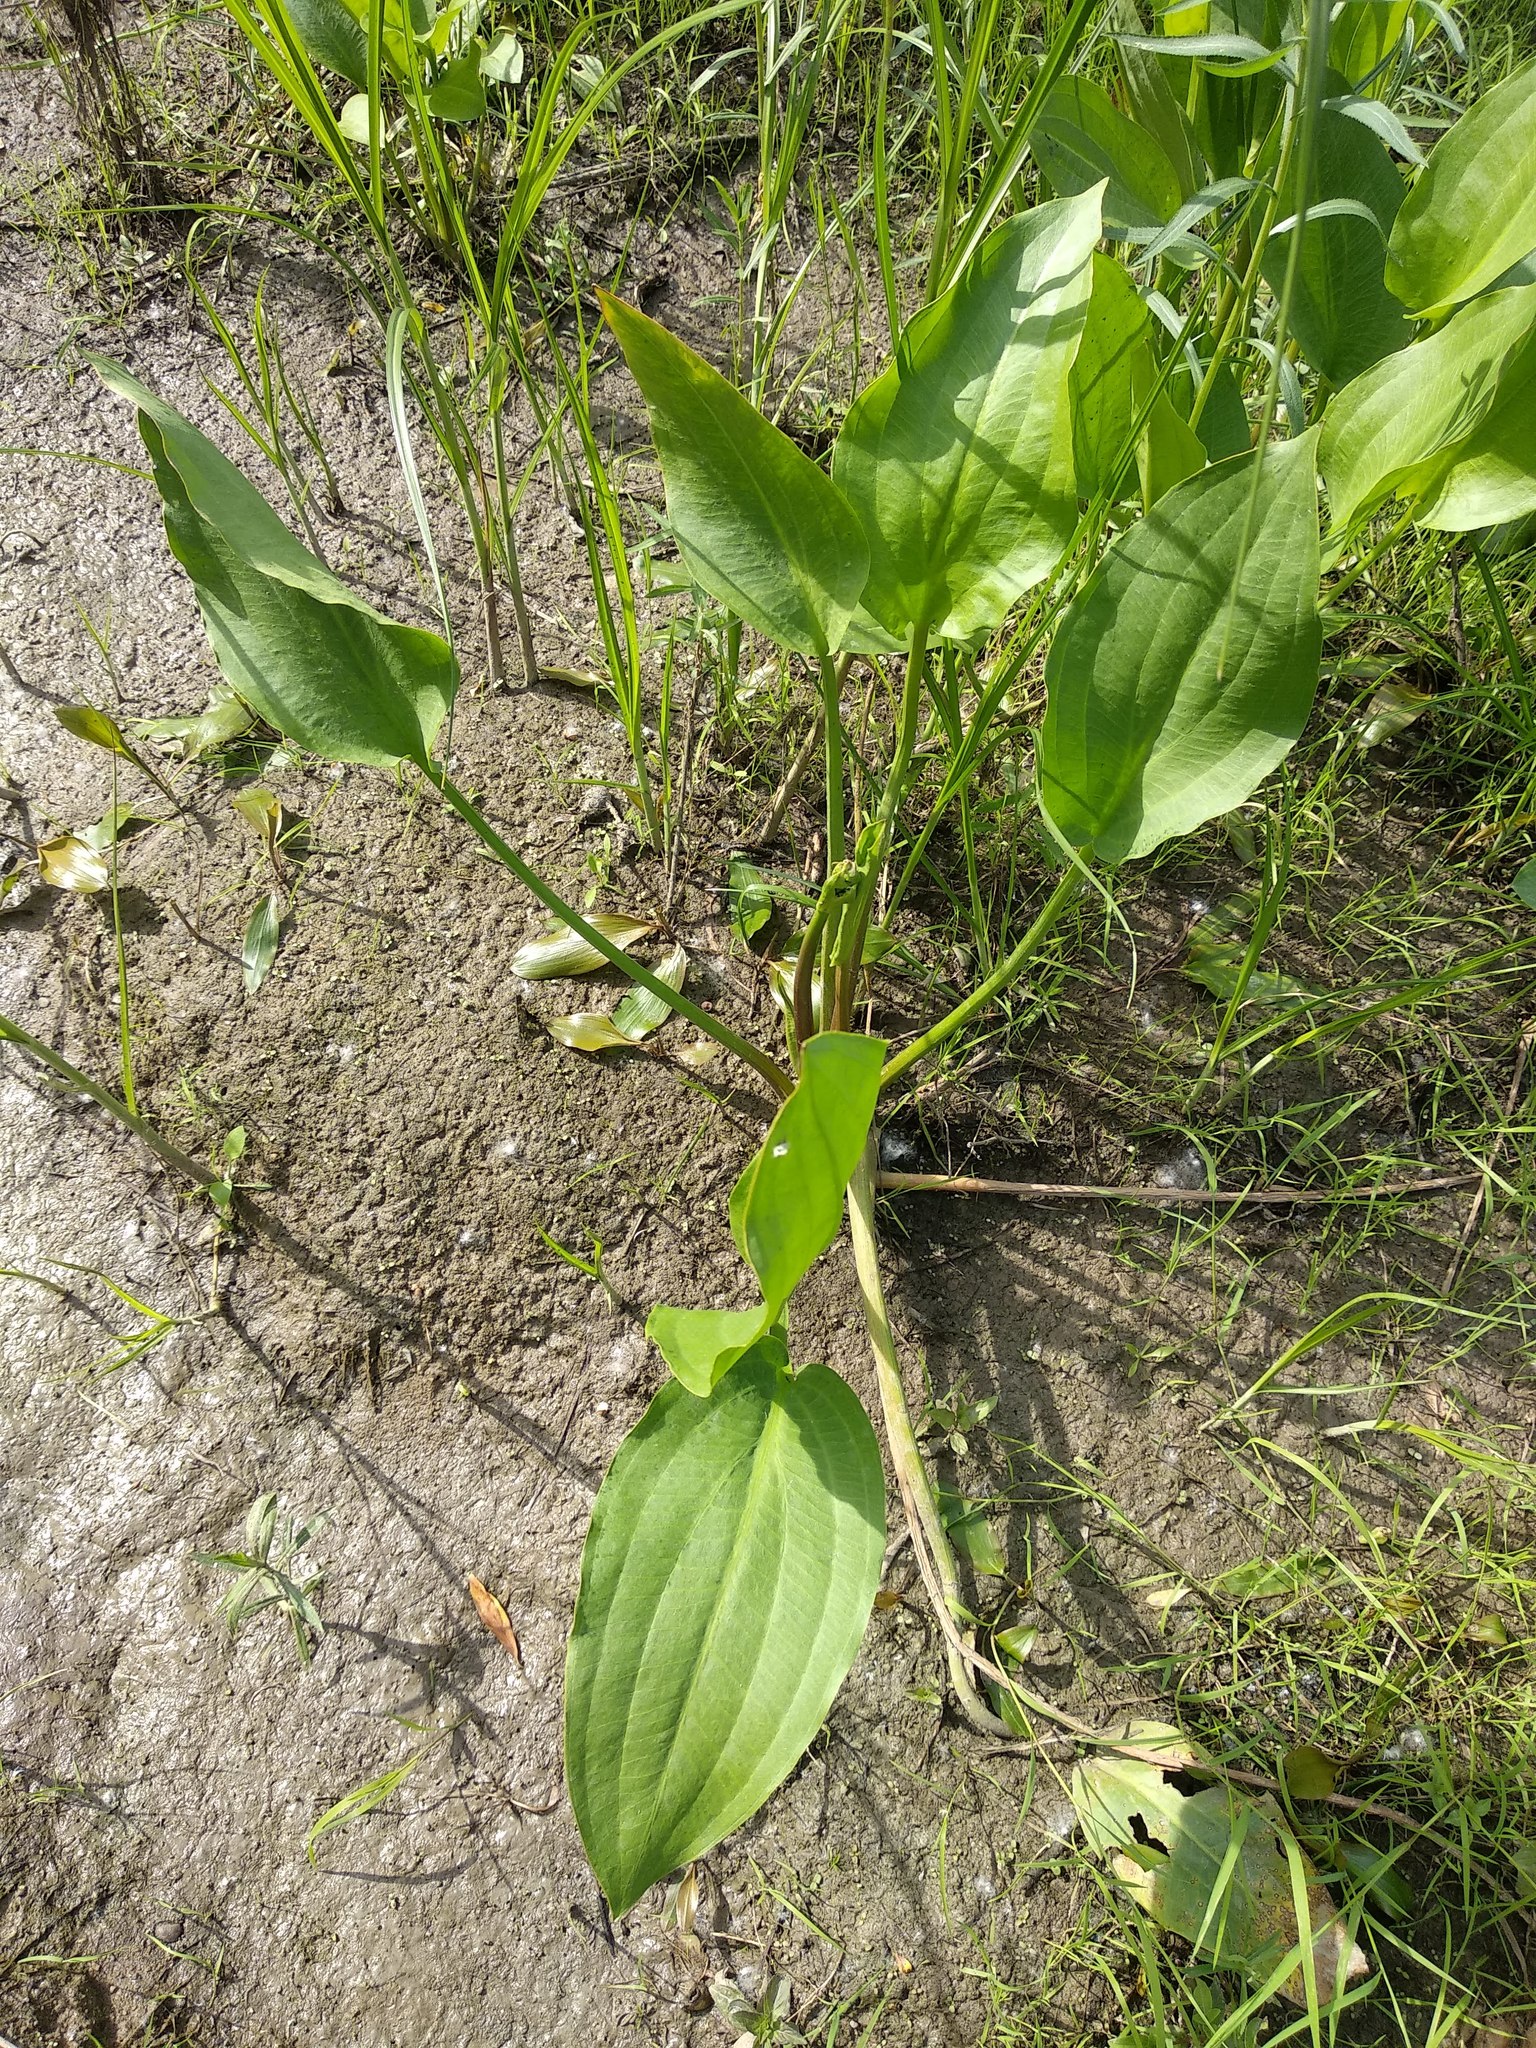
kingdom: Plantae
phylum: Tracheophyta
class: Liliopsida
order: Alismatales
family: Alismataceae
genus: Alisma
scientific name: Alisma plantago-aquatica
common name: Water-plantain
